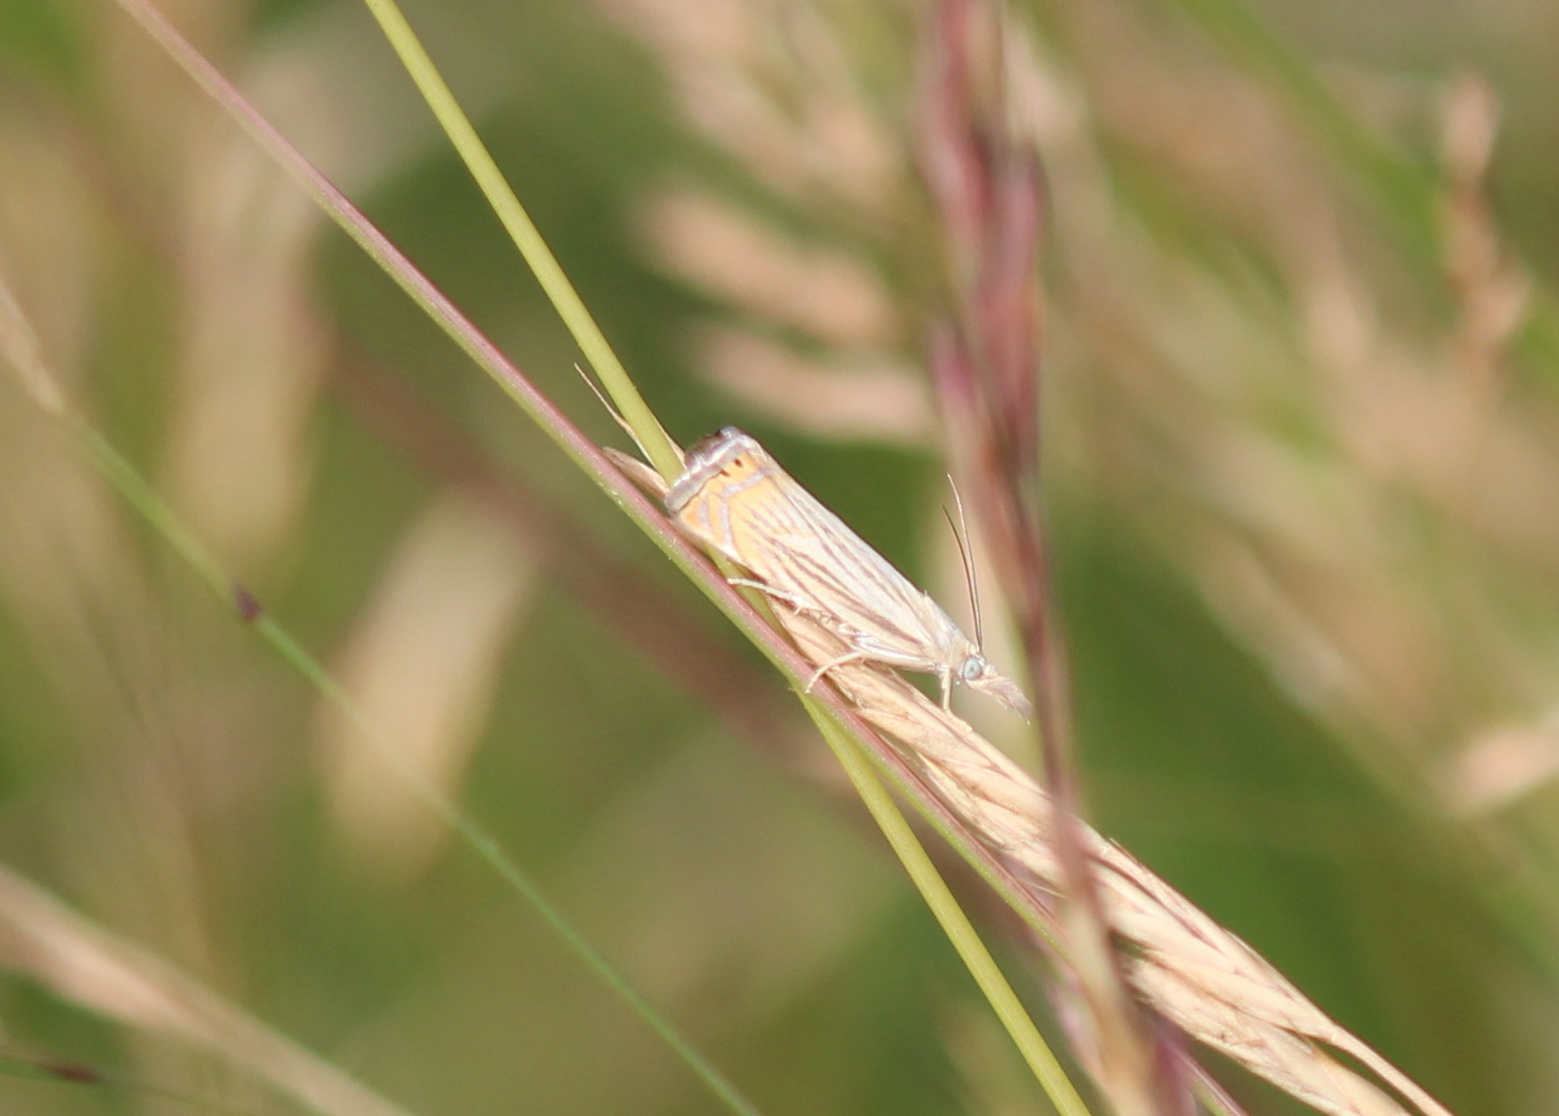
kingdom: Animalia
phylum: Arthropoda
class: Insecta
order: Lepidoptera
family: Crambidae
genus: Chrysoteuchia
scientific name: Chrysoteuchia topiarius
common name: Topiary grass-veneer
